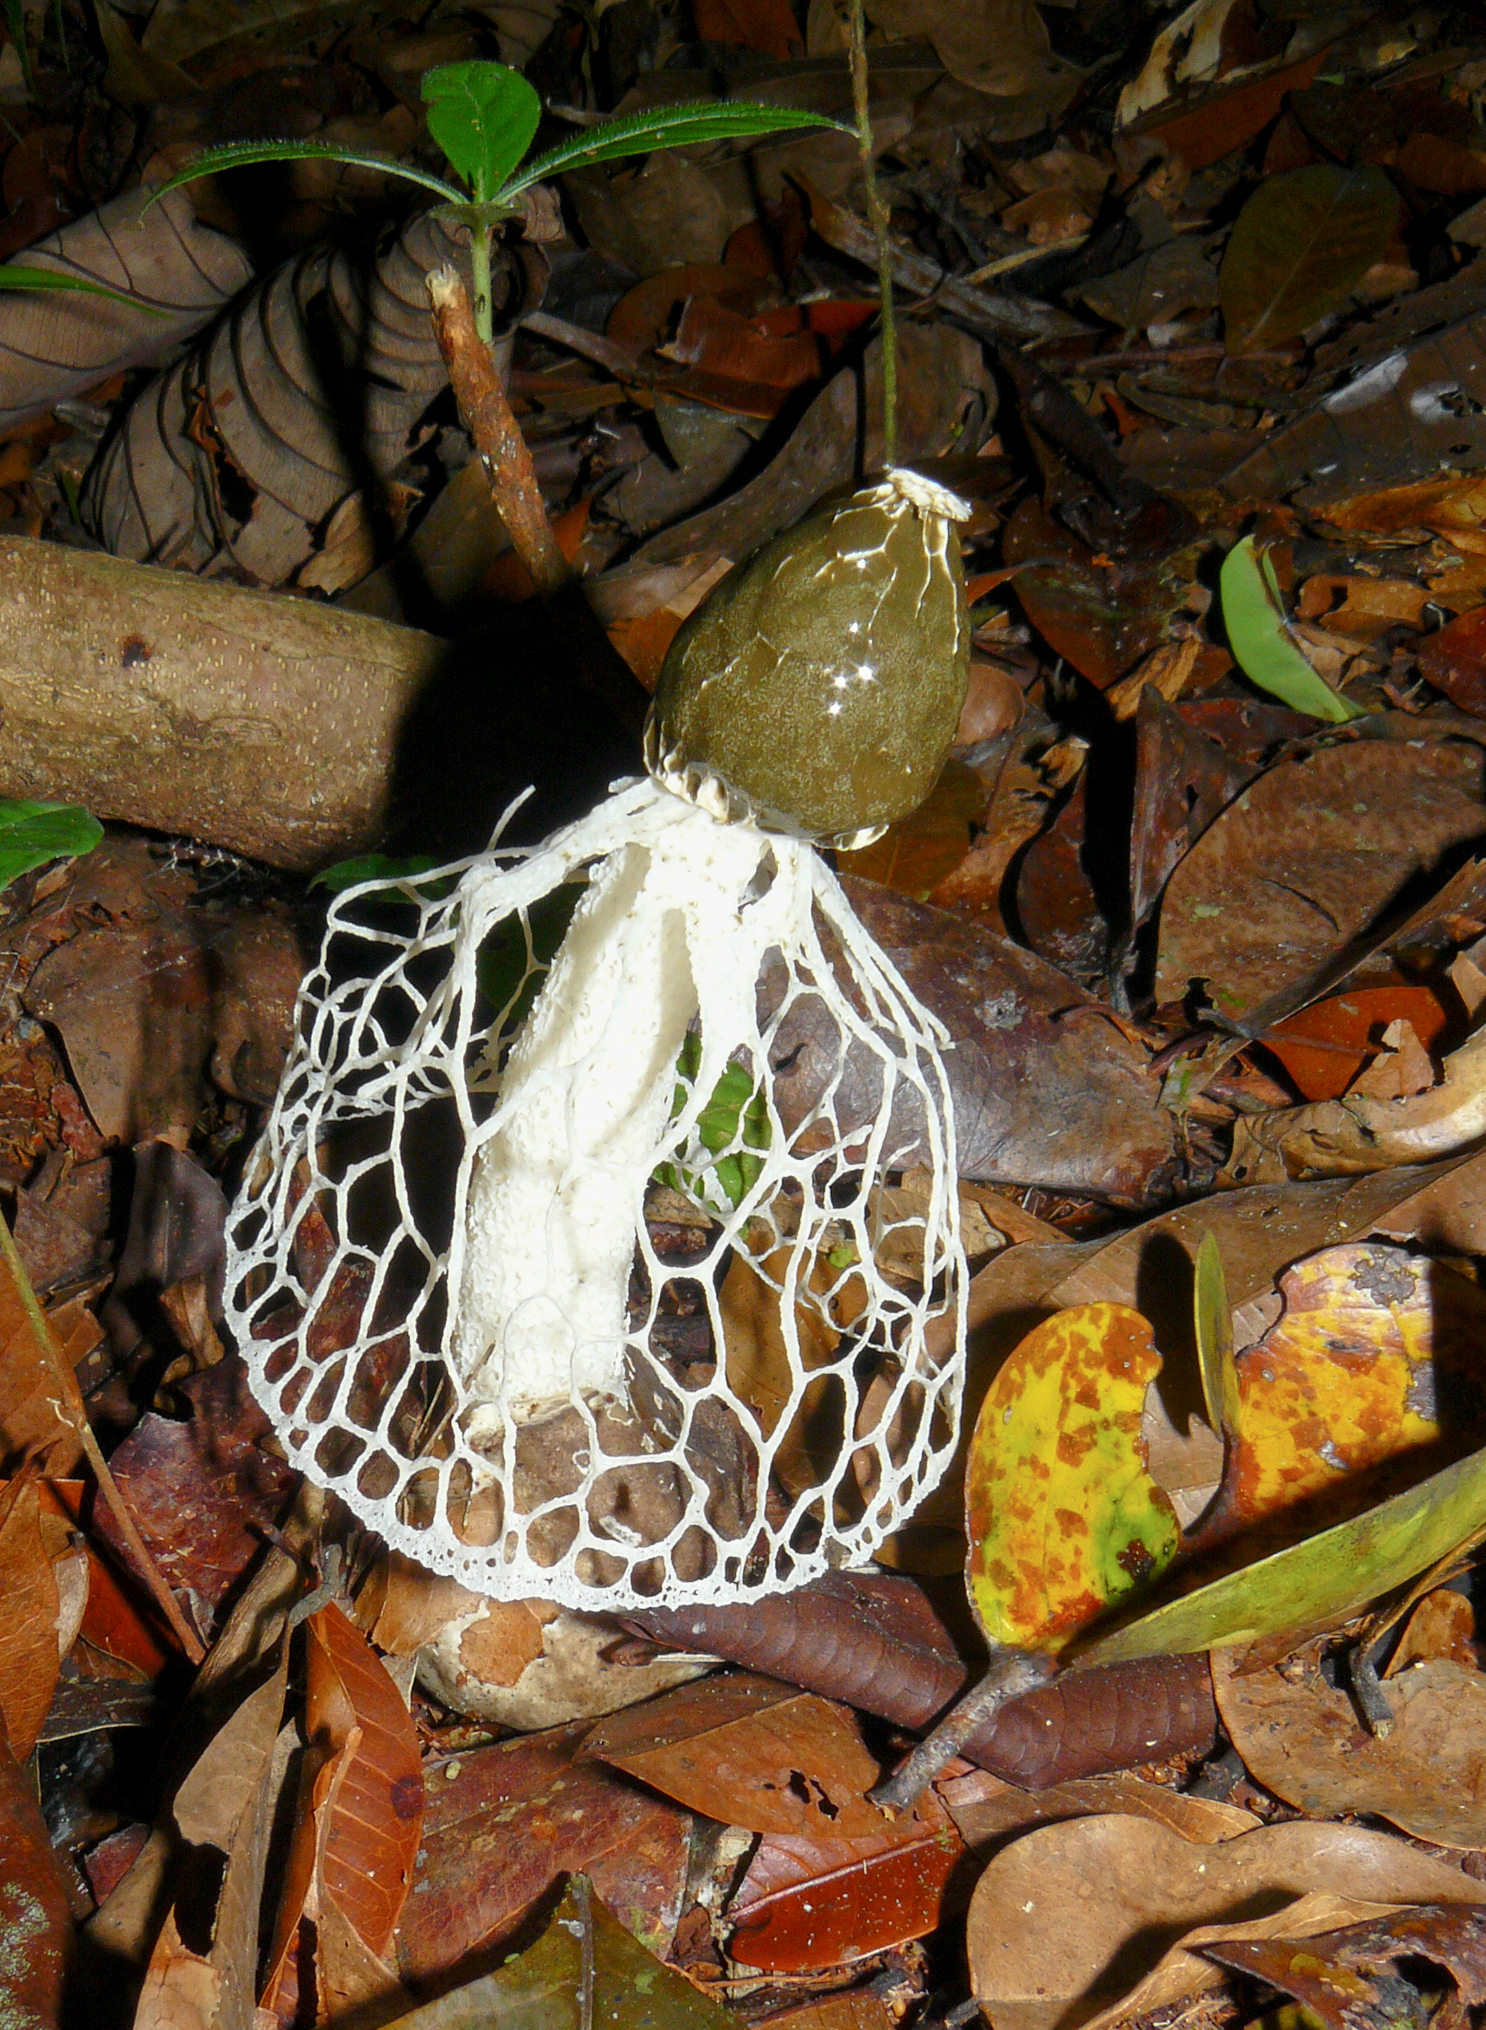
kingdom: Fungi
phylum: Basidiomycota
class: Agaricomycetes
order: Phallales
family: Phallaceae
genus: Phallus
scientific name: Phallus indusiatus
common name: Bridal veil stinkhorn
